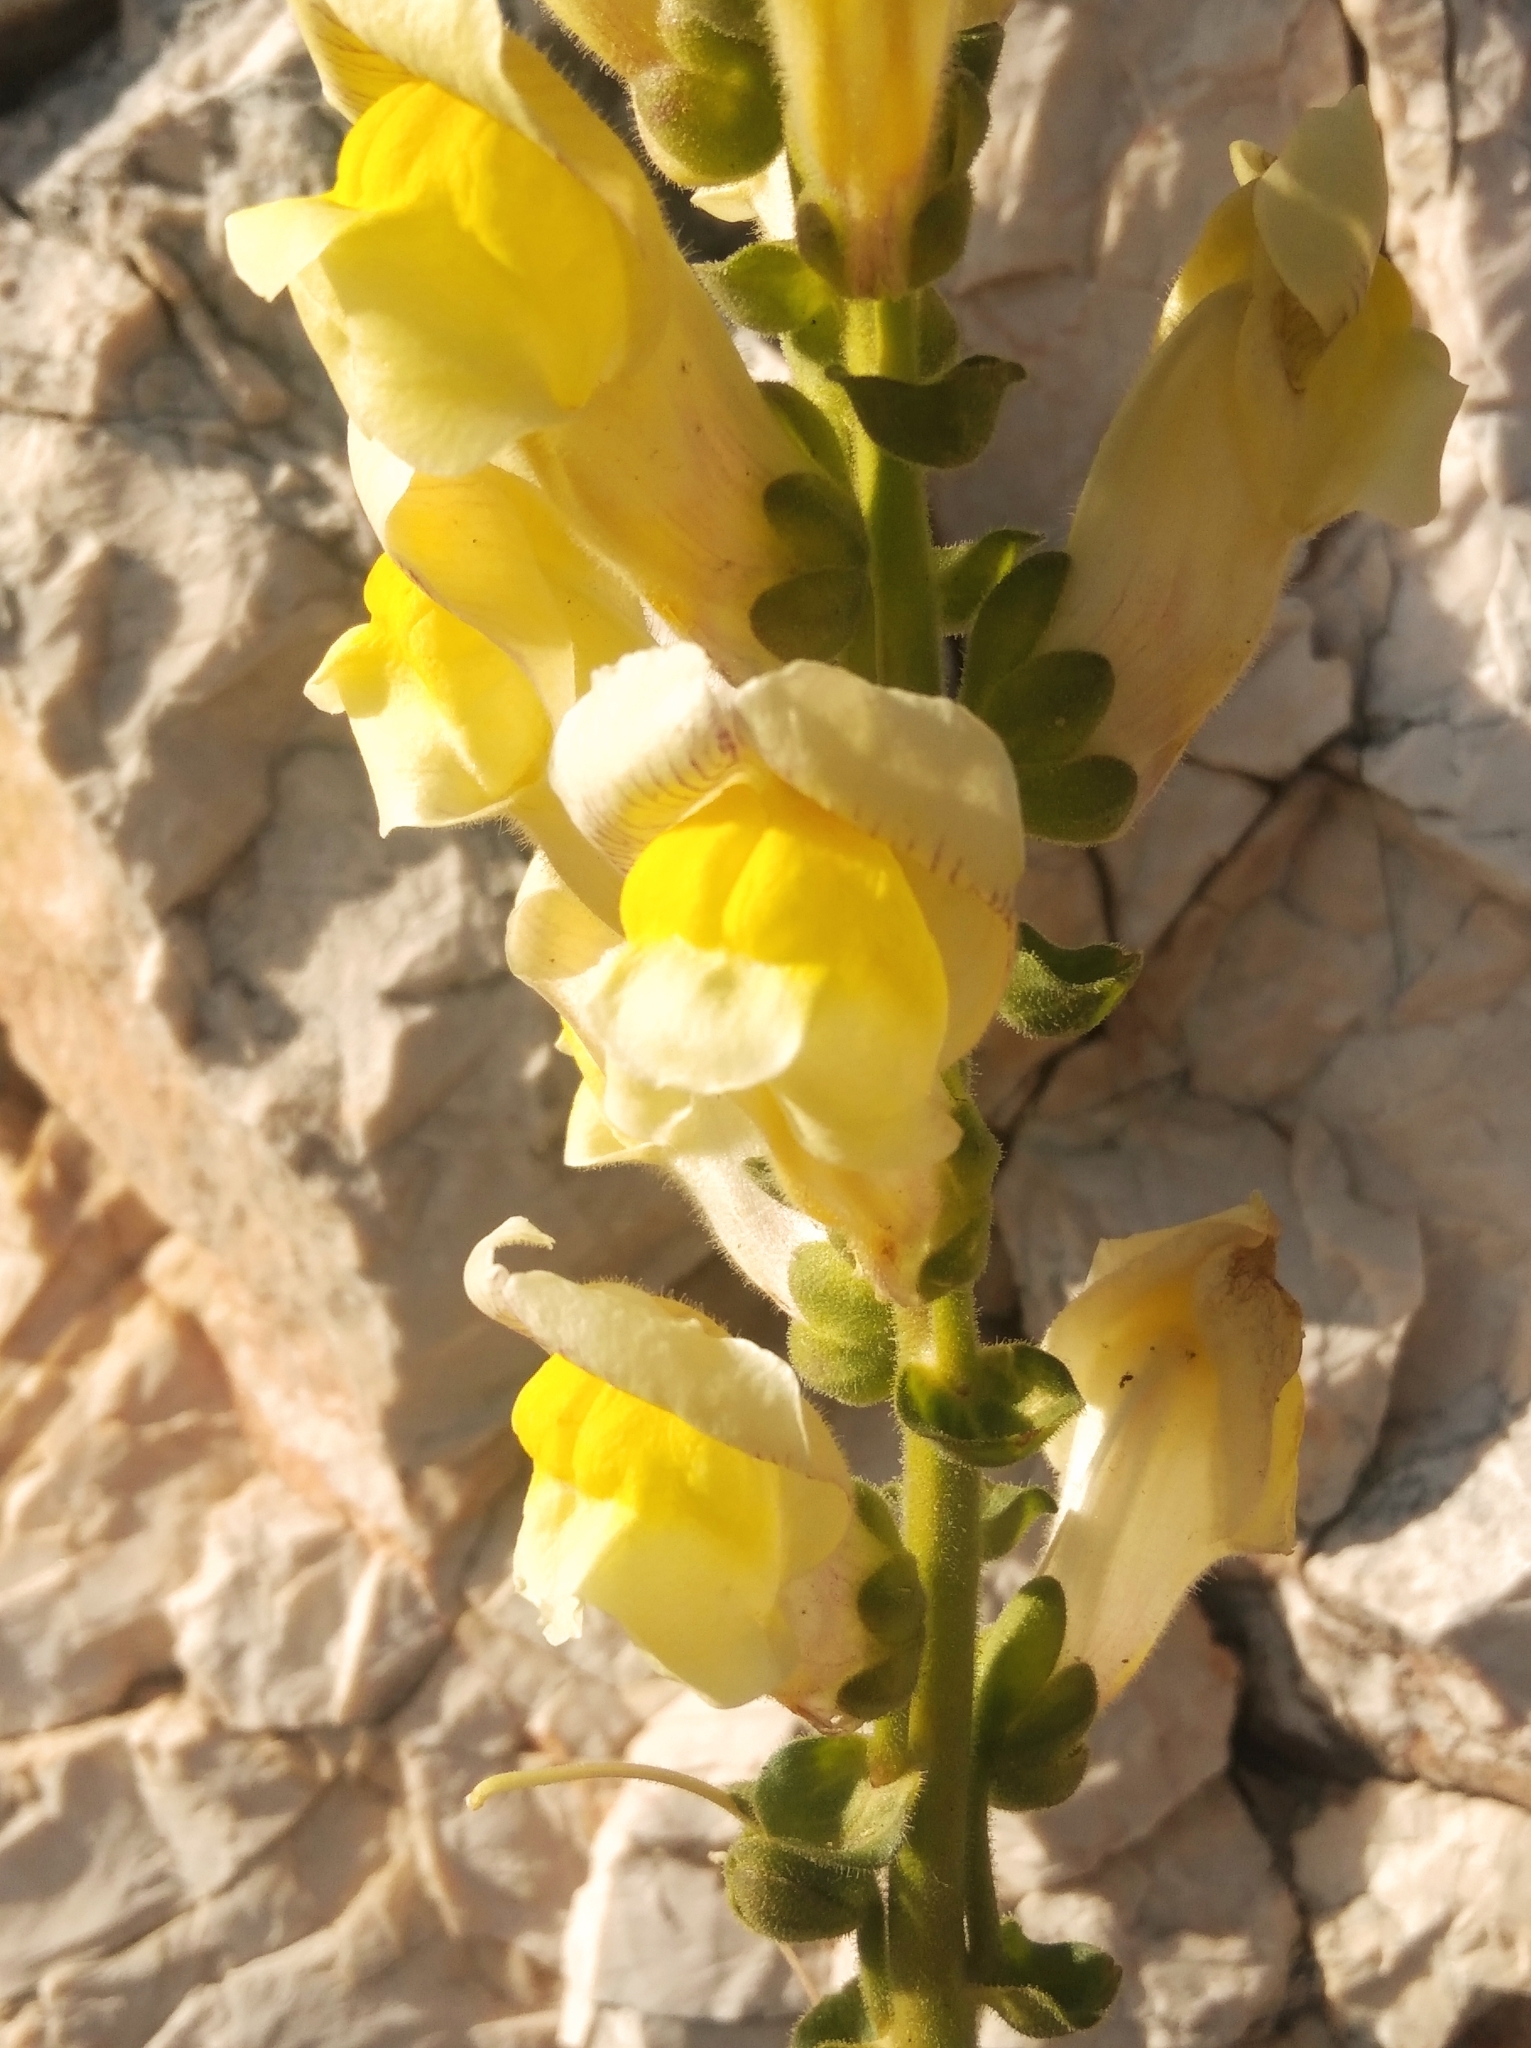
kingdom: Plantae
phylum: Tracheophyta
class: Magnoliopsida
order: Lamiales
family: Plantaginaceae
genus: Antirrhinum
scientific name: Antirrhinum latifolium
